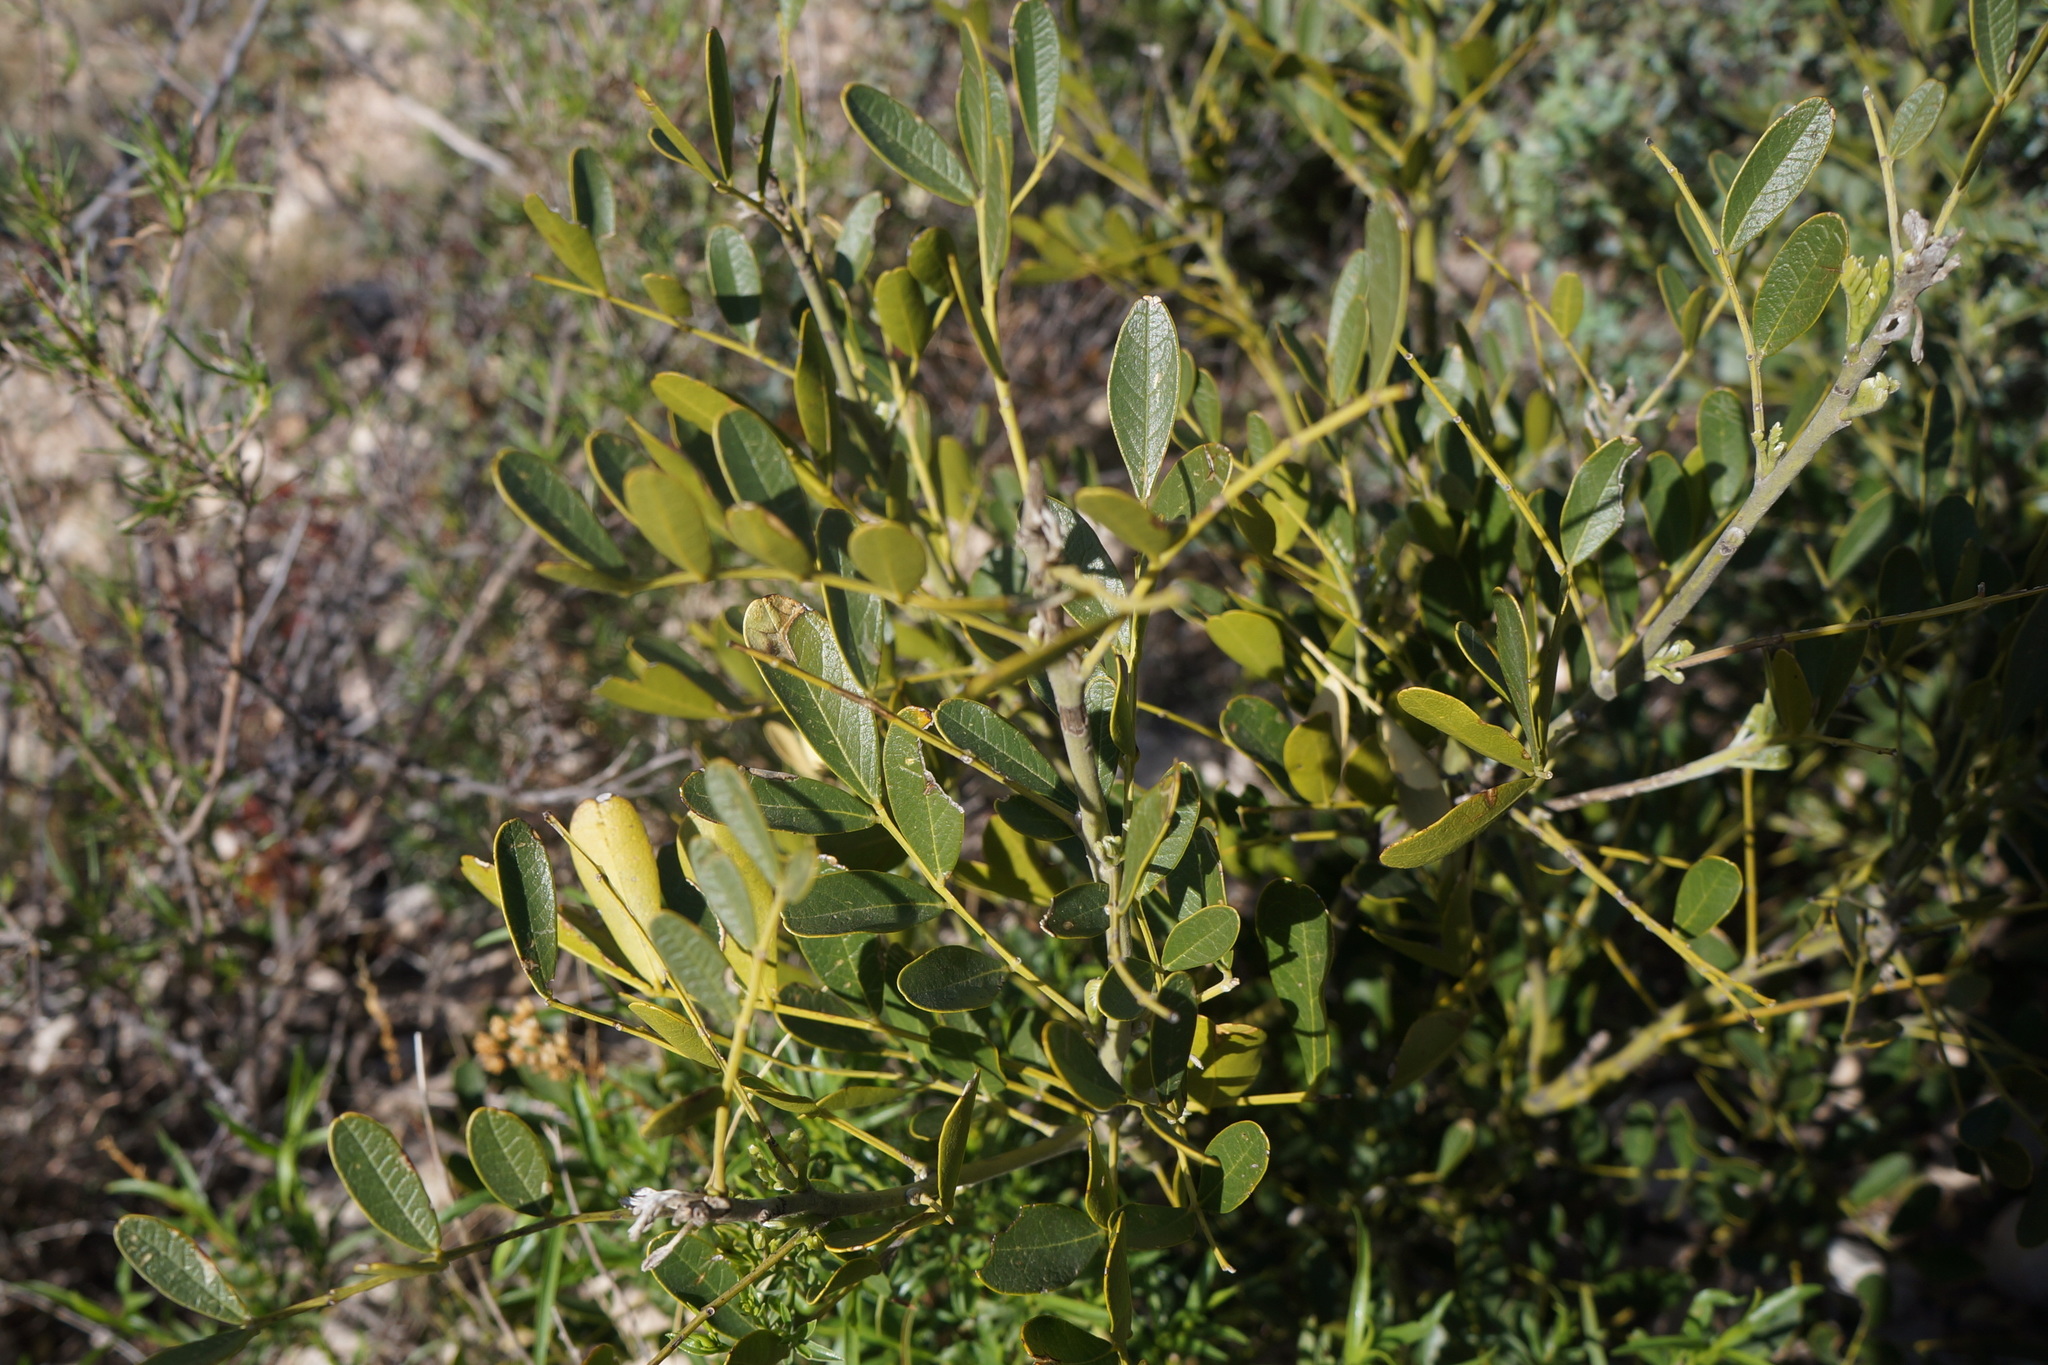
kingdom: Plantae
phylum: Tracheophyta
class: Magnoliopsida
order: Fabales
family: Fabaceae
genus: Dermatophyllum
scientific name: Dermatophyllum secundiflorum
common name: Texas-mountain-laurel
